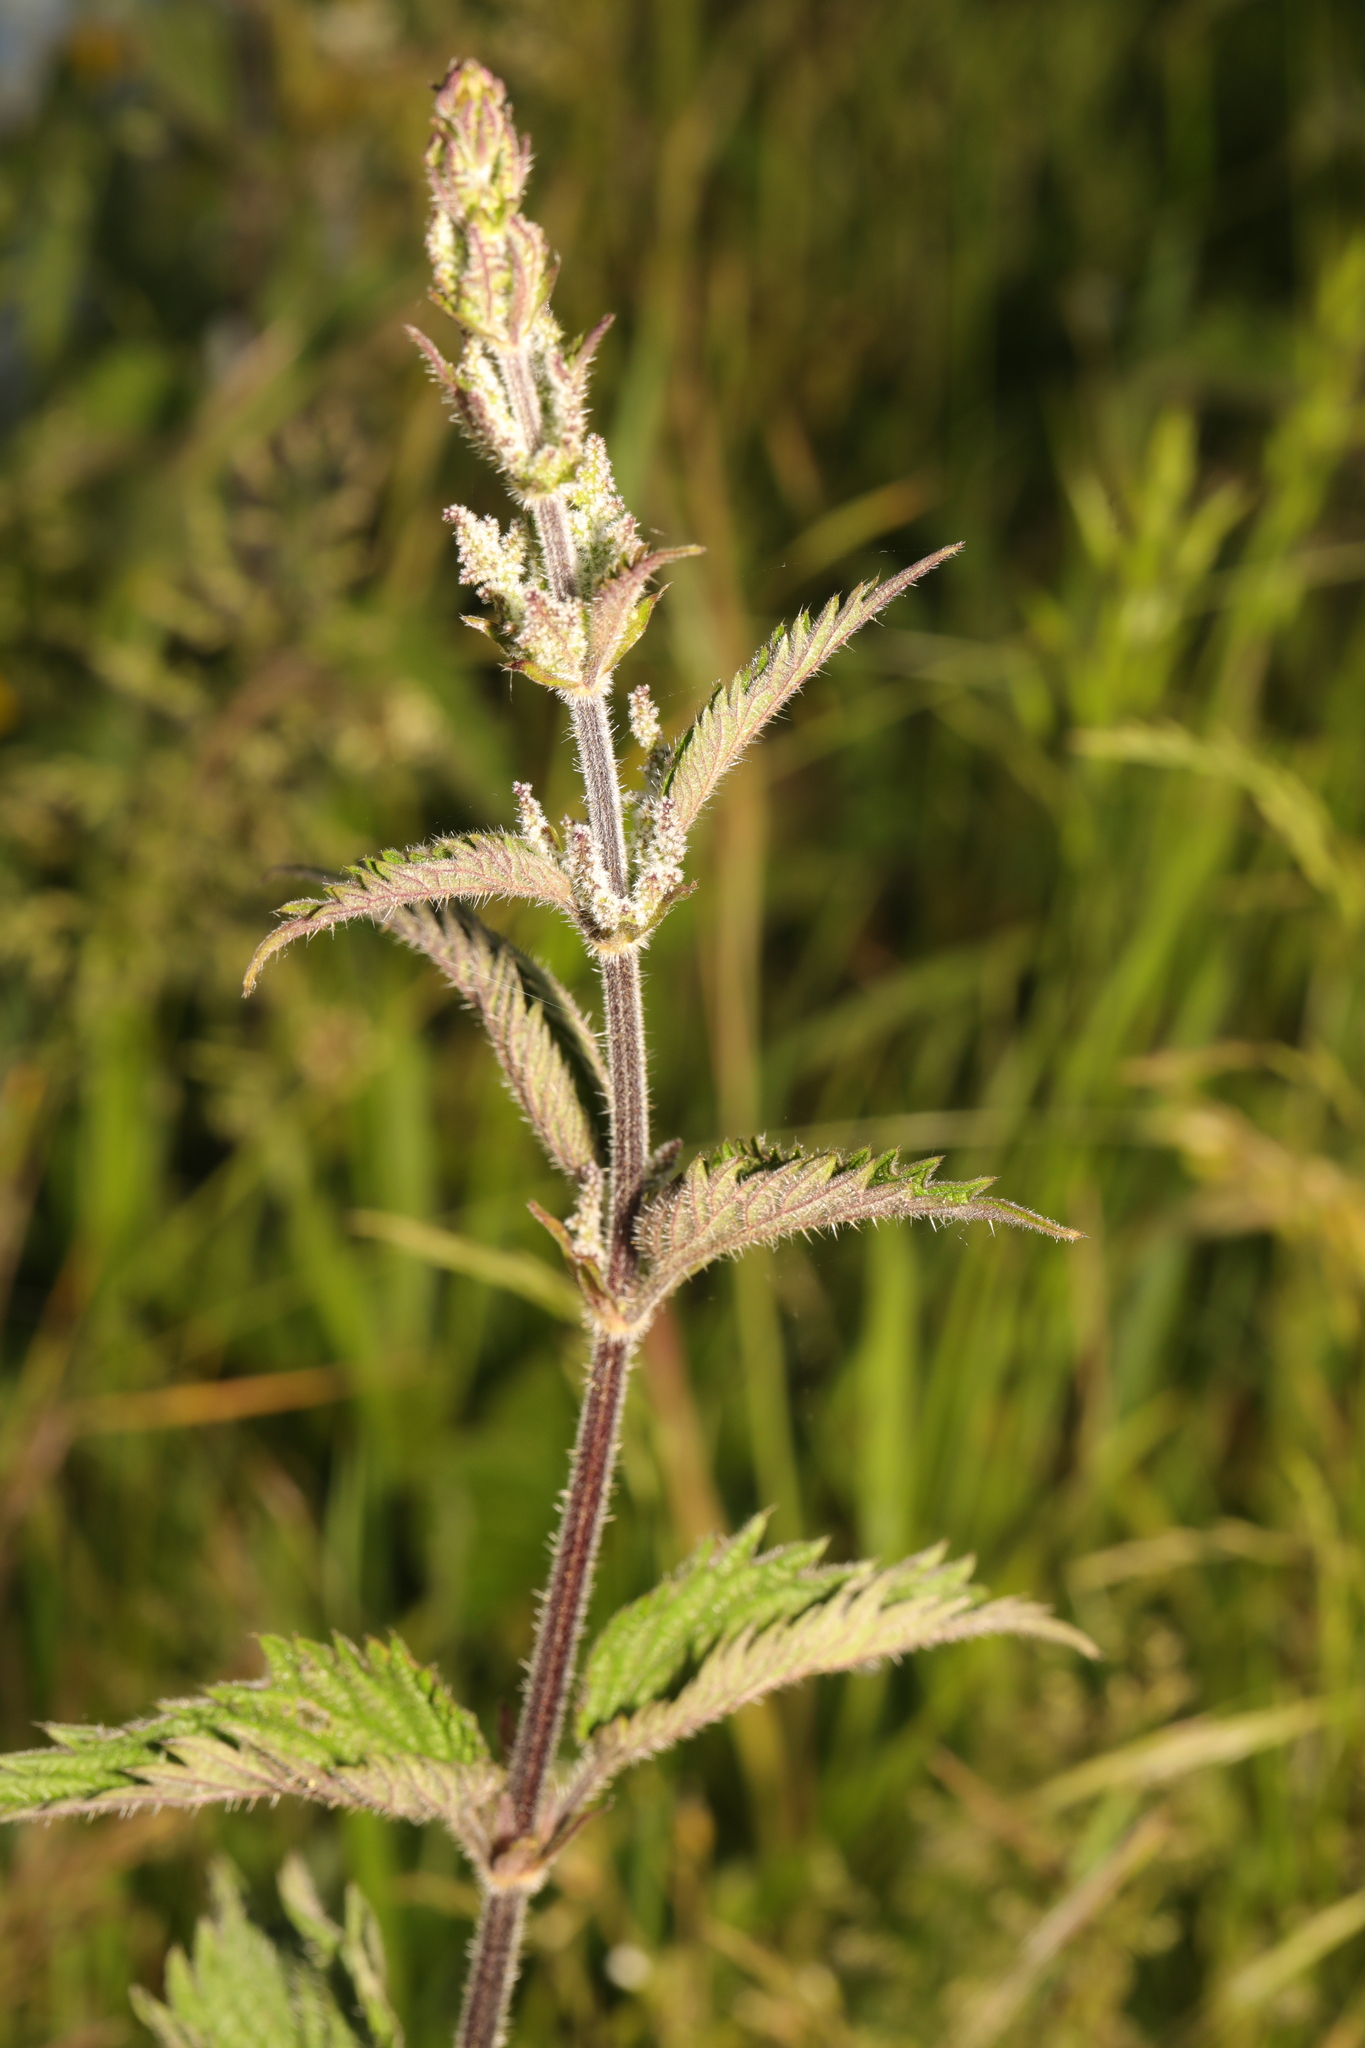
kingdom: Plantae
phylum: Tracheophyta
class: Magnoliopsida
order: Rosales
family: Urticaceae
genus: Urtica
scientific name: Urtica dioica
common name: Common nettle
